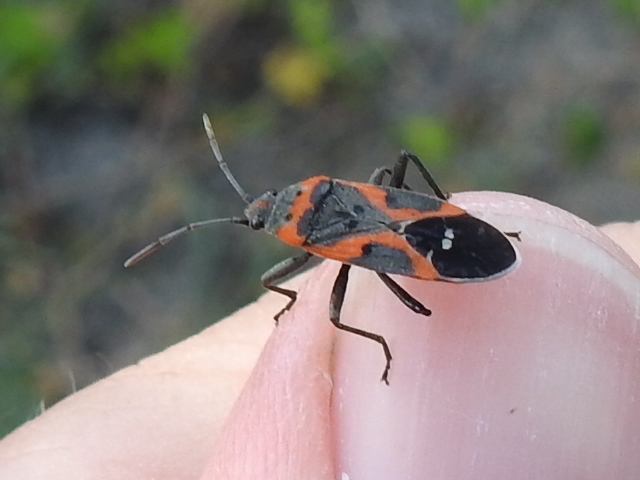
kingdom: Animalia
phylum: Arthropoda
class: Insecta
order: Hemiptera
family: Lygaeidae
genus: Lygaeus
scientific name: Lygaeus kalmii
